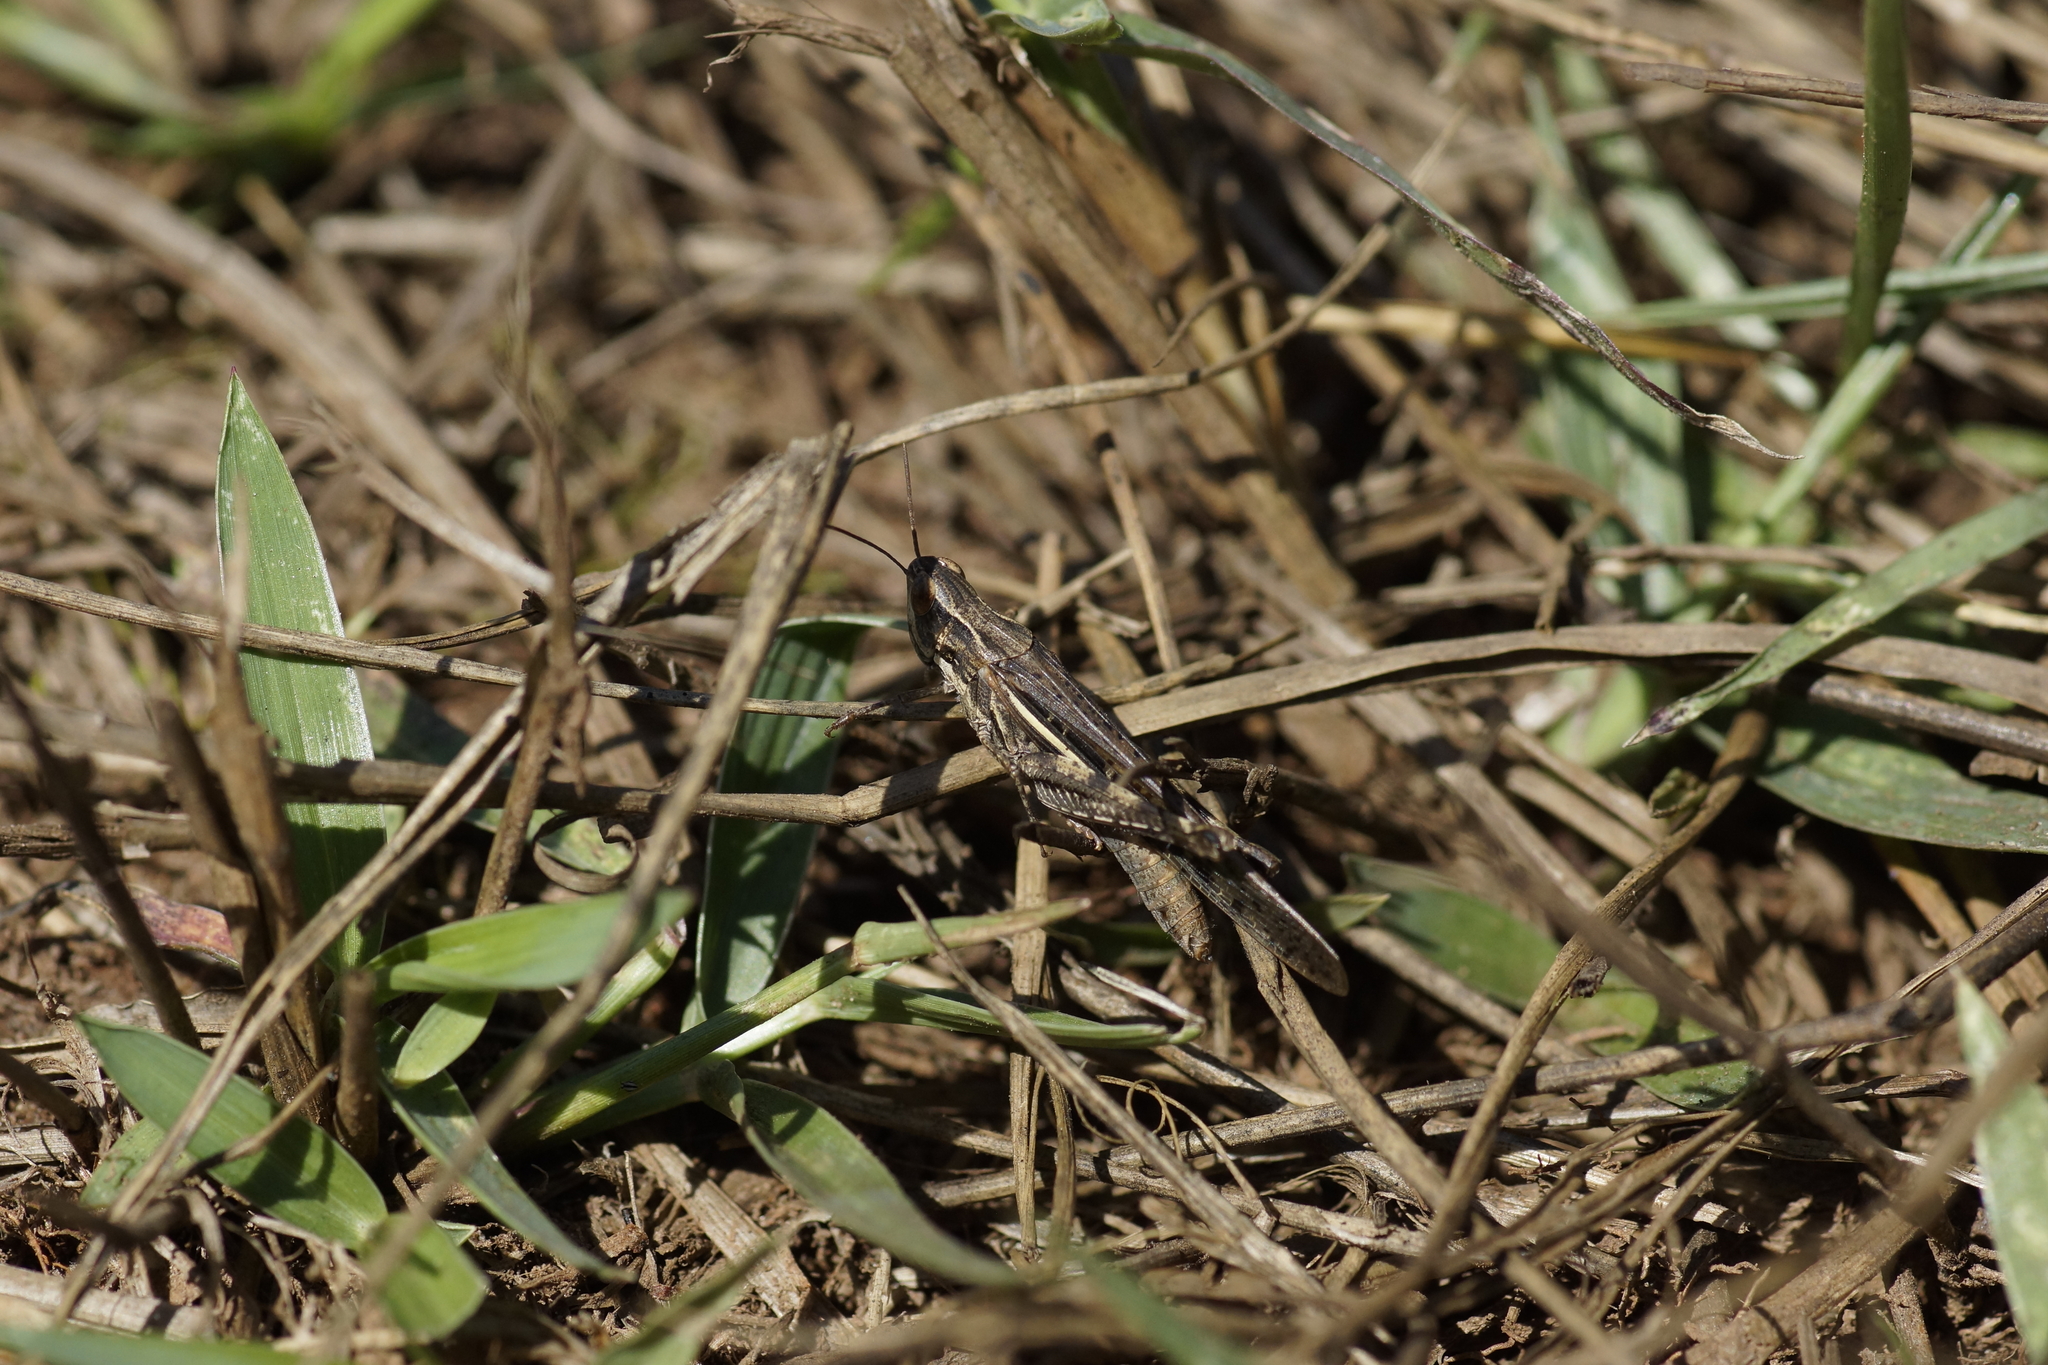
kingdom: Animalia
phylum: Arthropoda
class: Insecta
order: Orthoptera
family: Acrididae
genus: Aiolopus
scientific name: Aiolopus thalassinus
